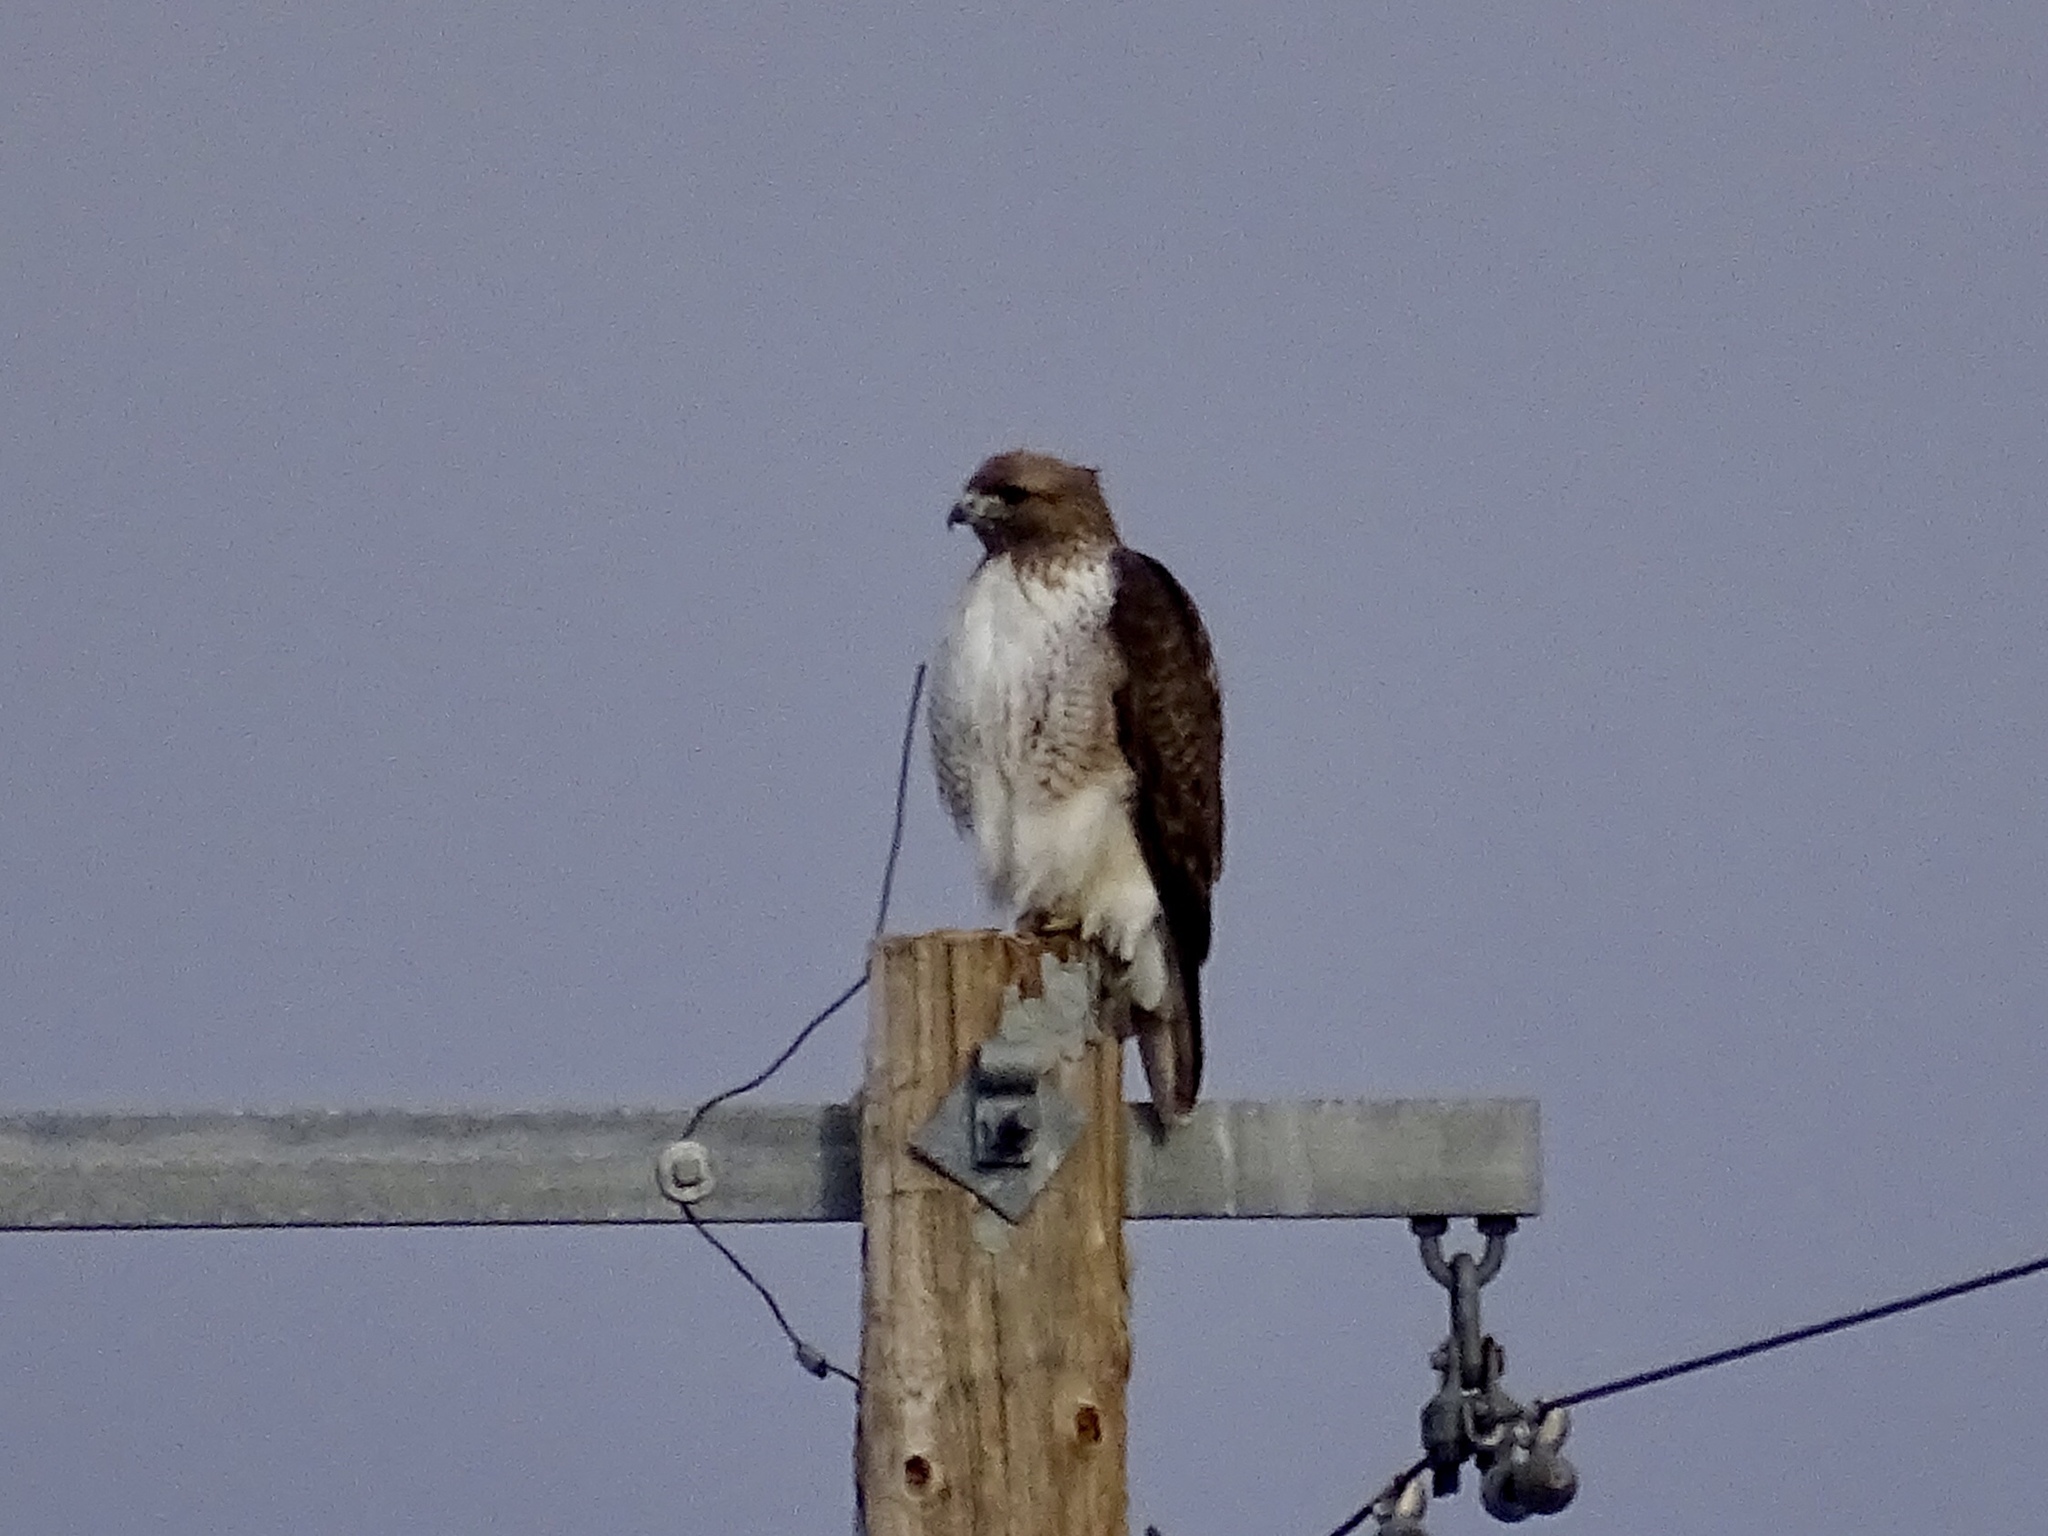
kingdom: Animalia
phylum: Chordata
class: Aves
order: Accipitriformes
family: Accipitridae
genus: Buteo
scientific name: Buteo jamaicensis
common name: Red-tailed hawk
